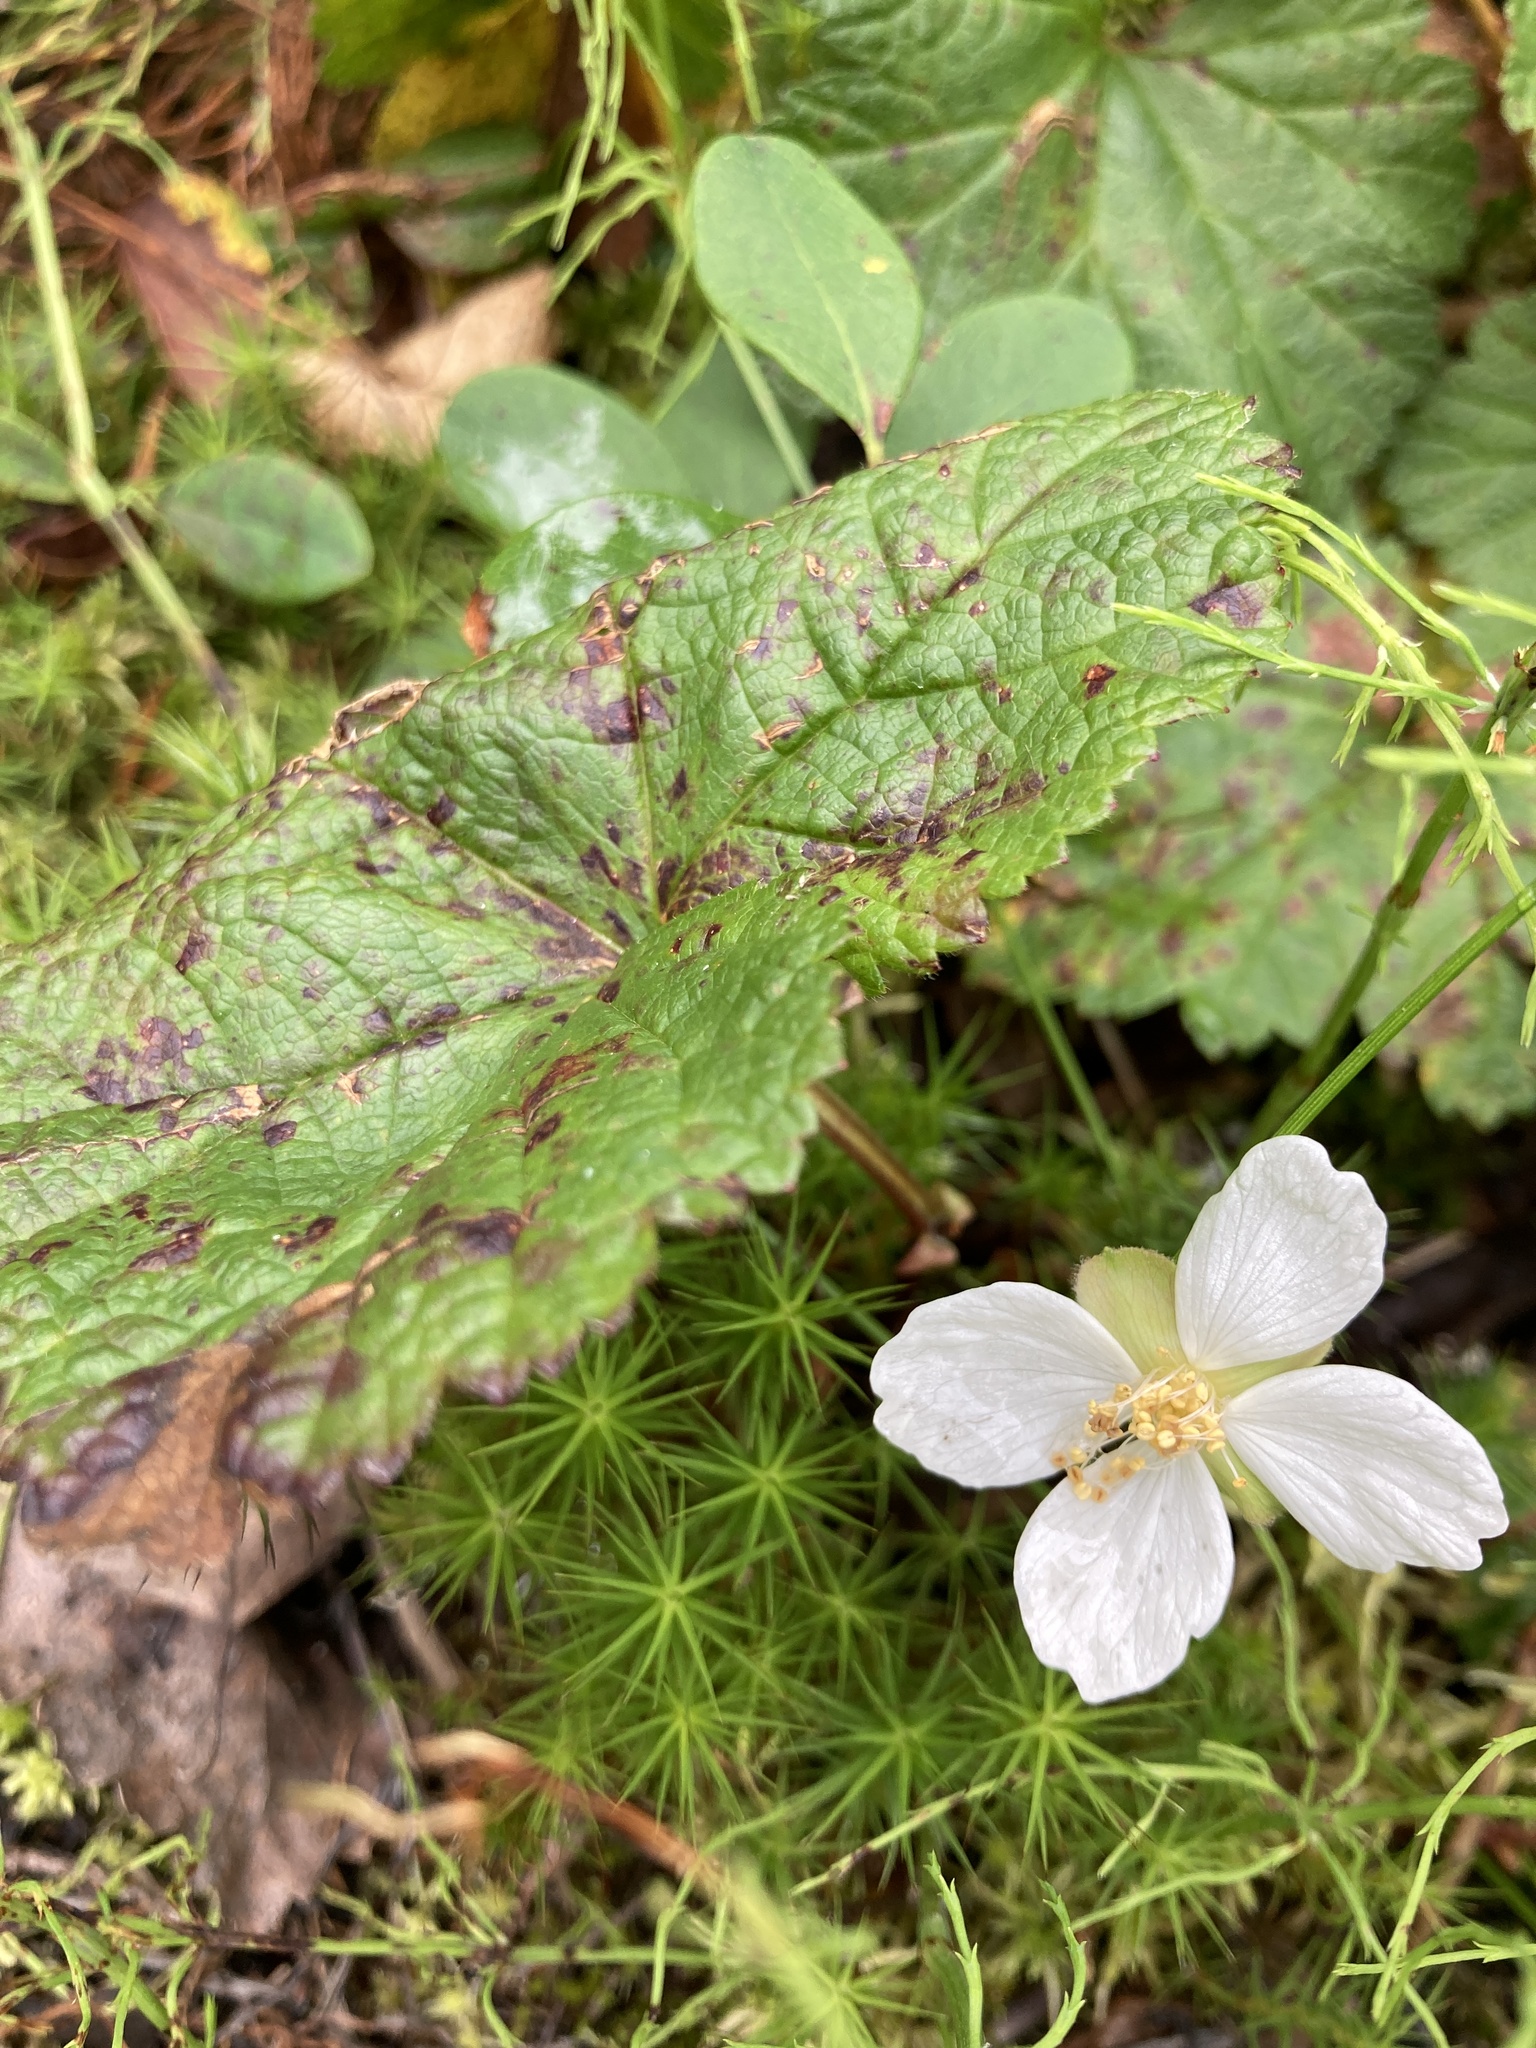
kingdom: Plantae
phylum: Tracheophyta
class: Magnoliopsida
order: Rosales
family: Rosaceae
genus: Rubus
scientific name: Rubus chamaemorus
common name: Cloudberry
